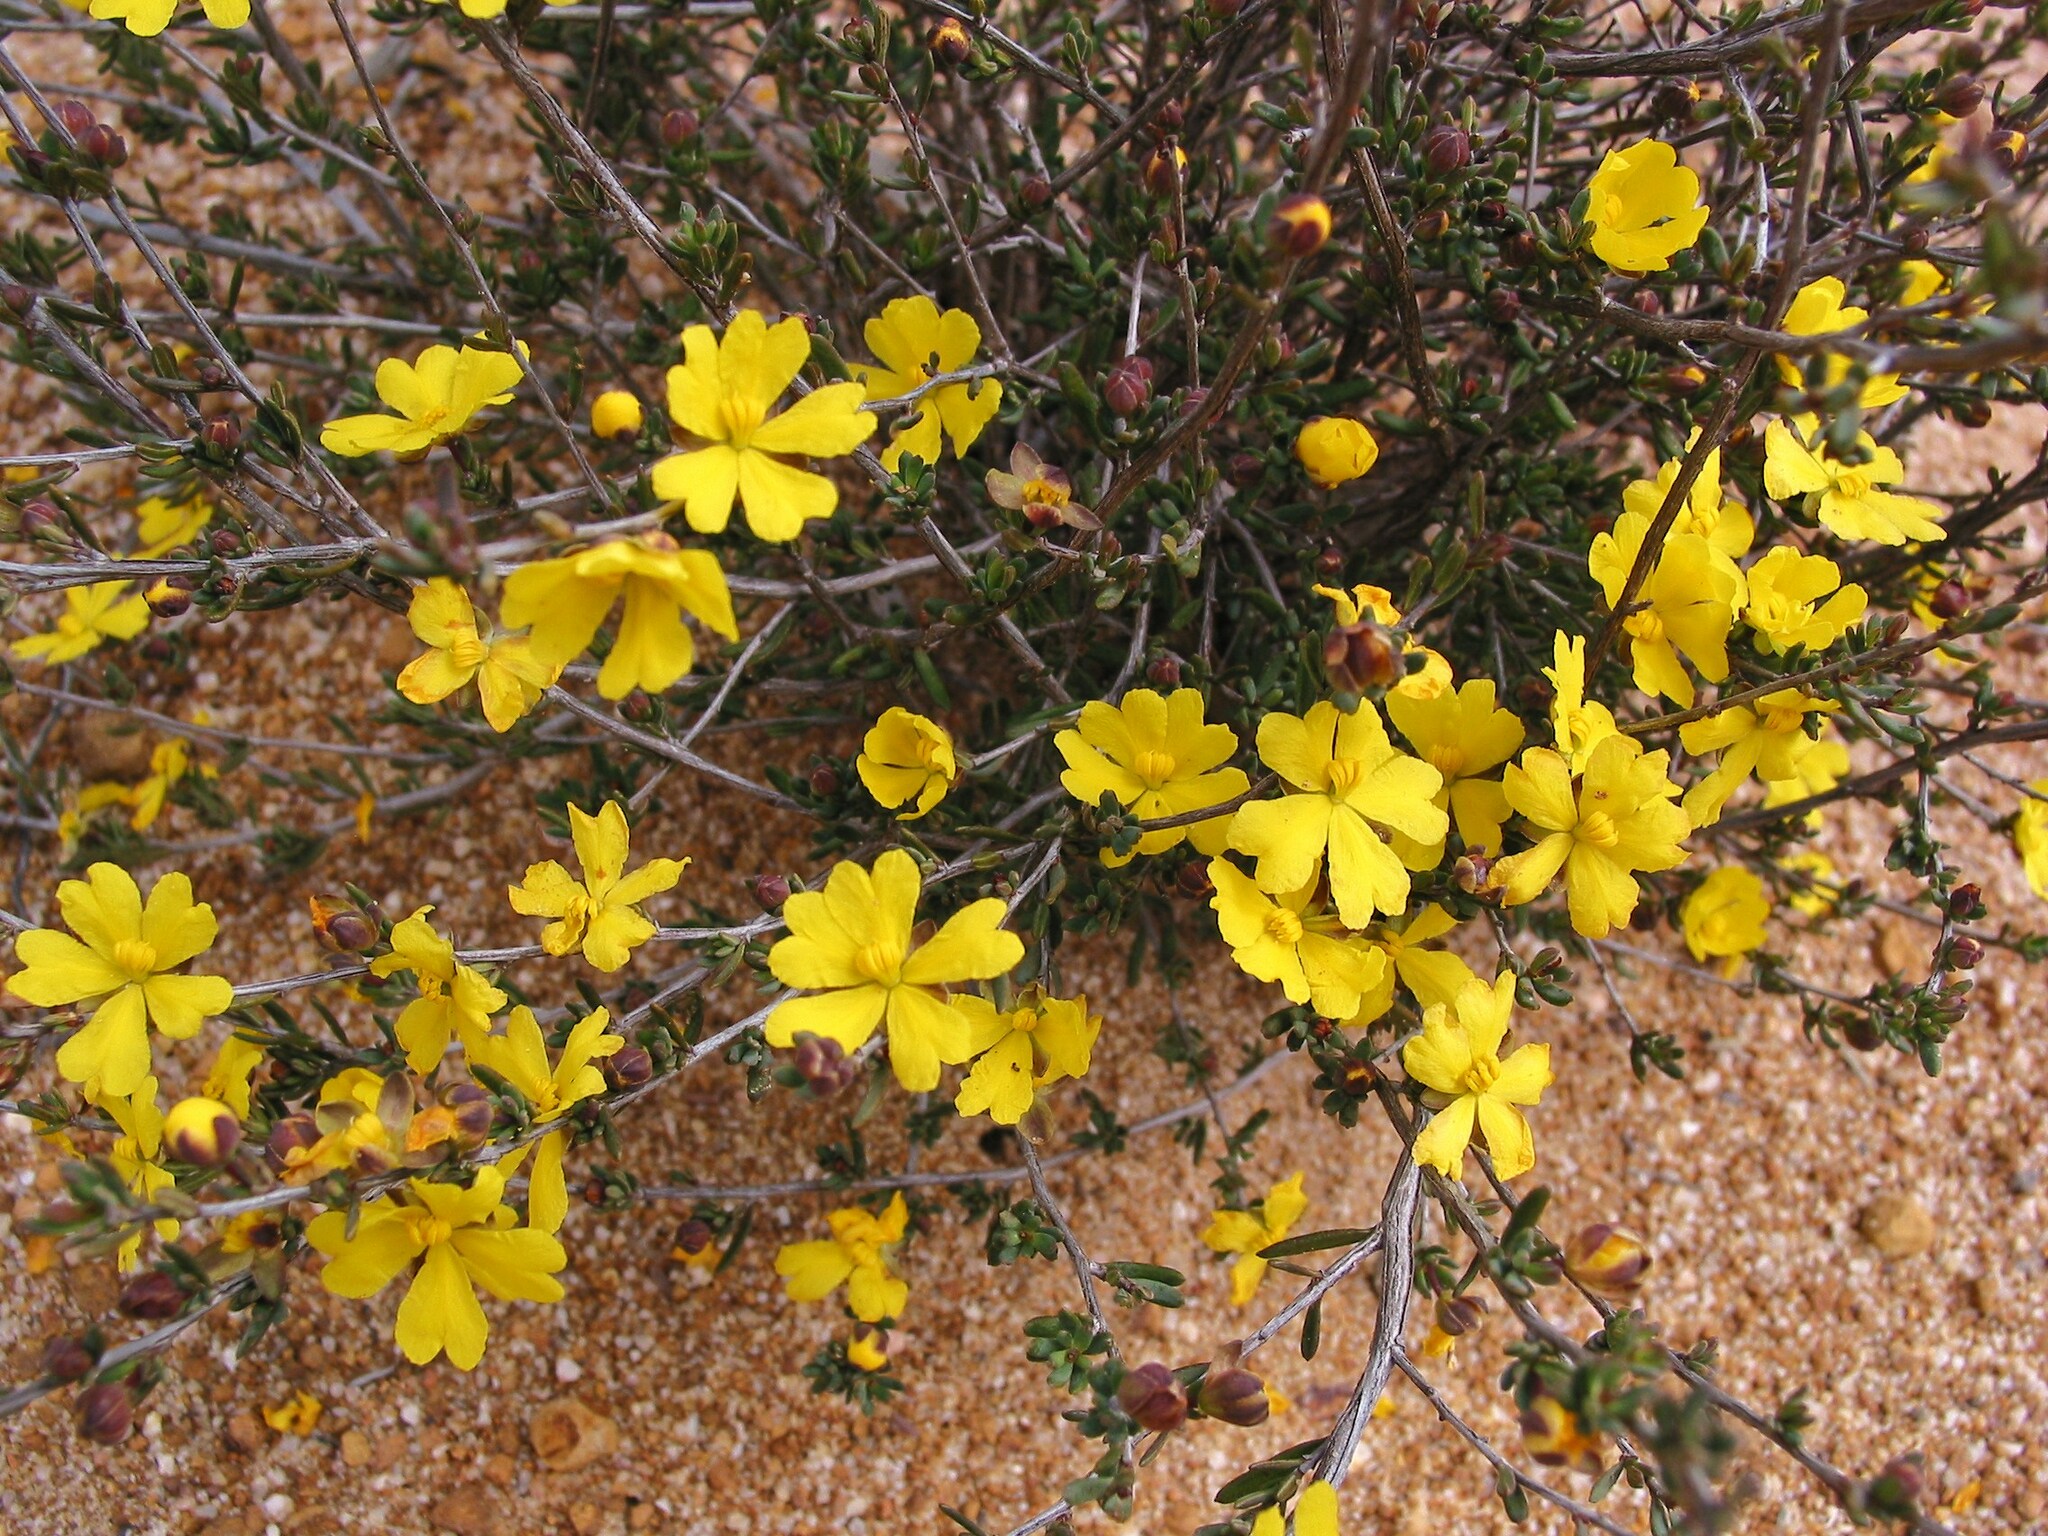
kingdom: Plantae
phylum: Tracheophyta
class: Magnoliopsida
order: Dilleniales
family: Dilleniaceae
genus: Hibbertia
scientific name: Hibbertia gracilipes
